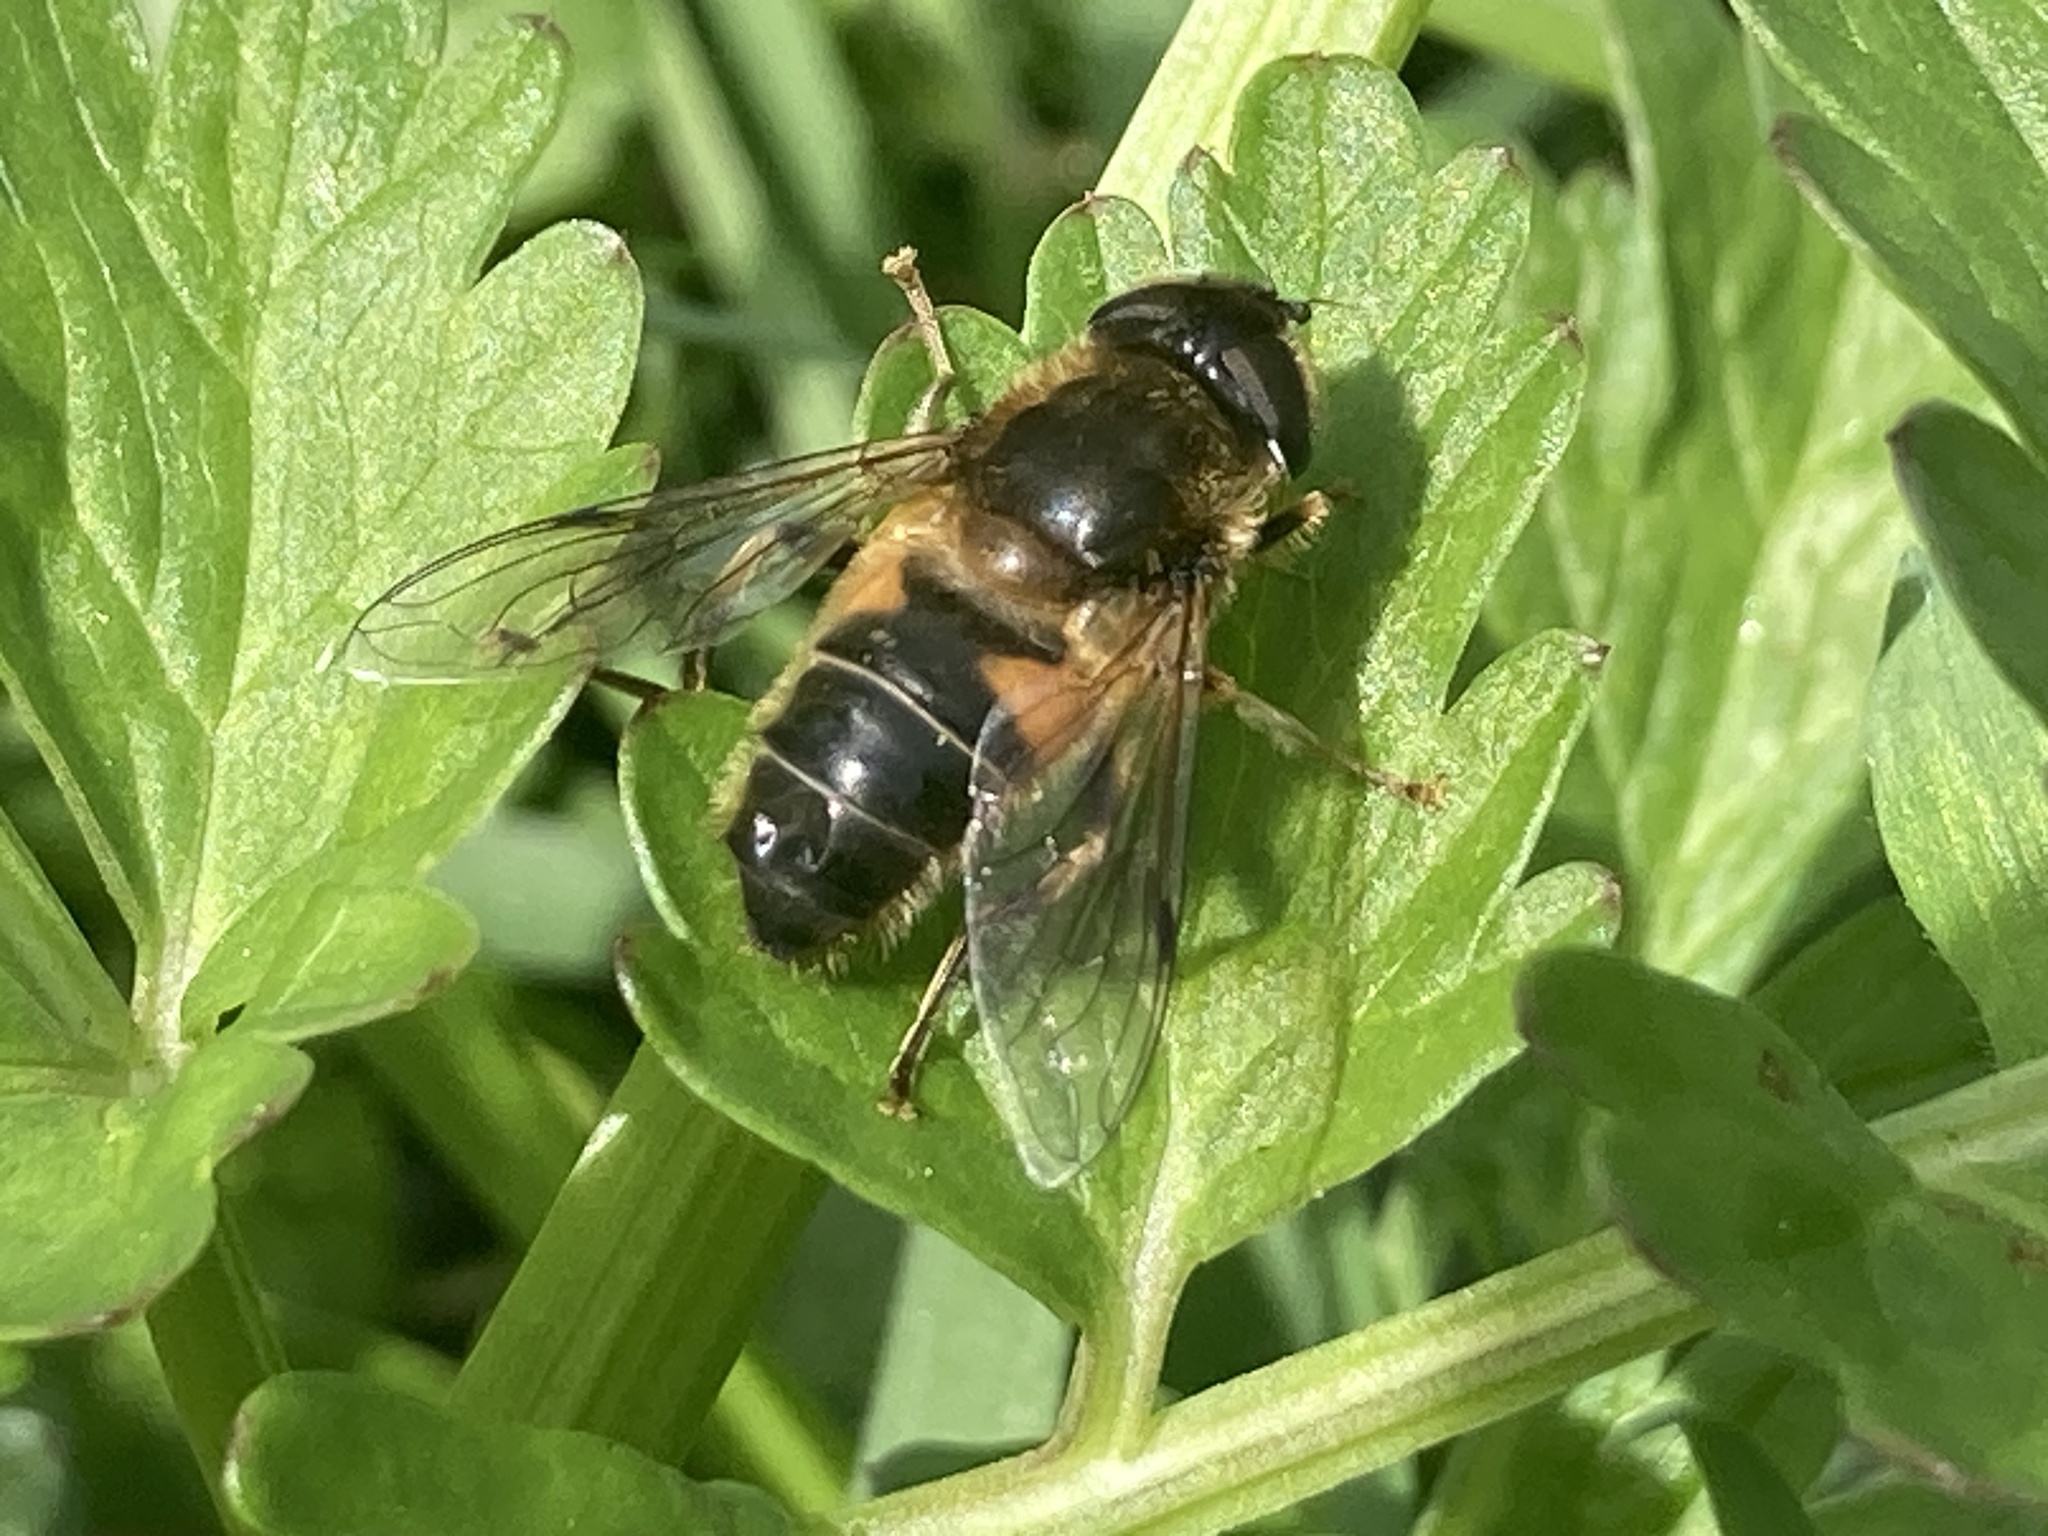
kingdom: Animalia
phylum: Arthropoda
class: Insecta
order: Diptera
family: Syrphidae
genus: Eristalis
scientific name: Eristalis pertinax
